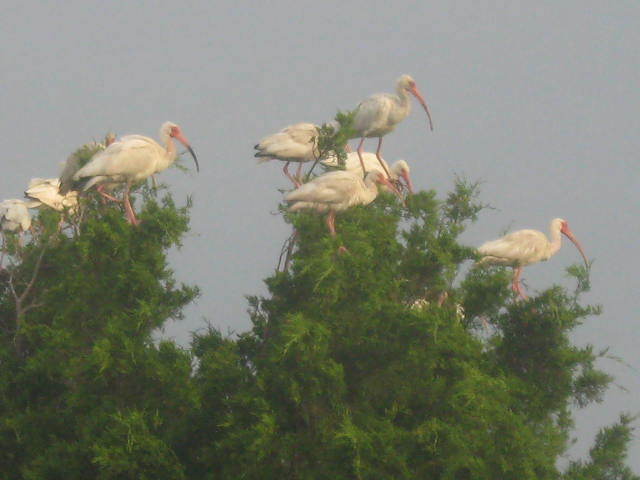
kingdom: Animalia
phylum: Chordata
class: Aves
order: Pelecaniformes
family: Threskiornithidae
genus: Eudocimus
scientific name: Eudocimus albus
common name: White ibis
